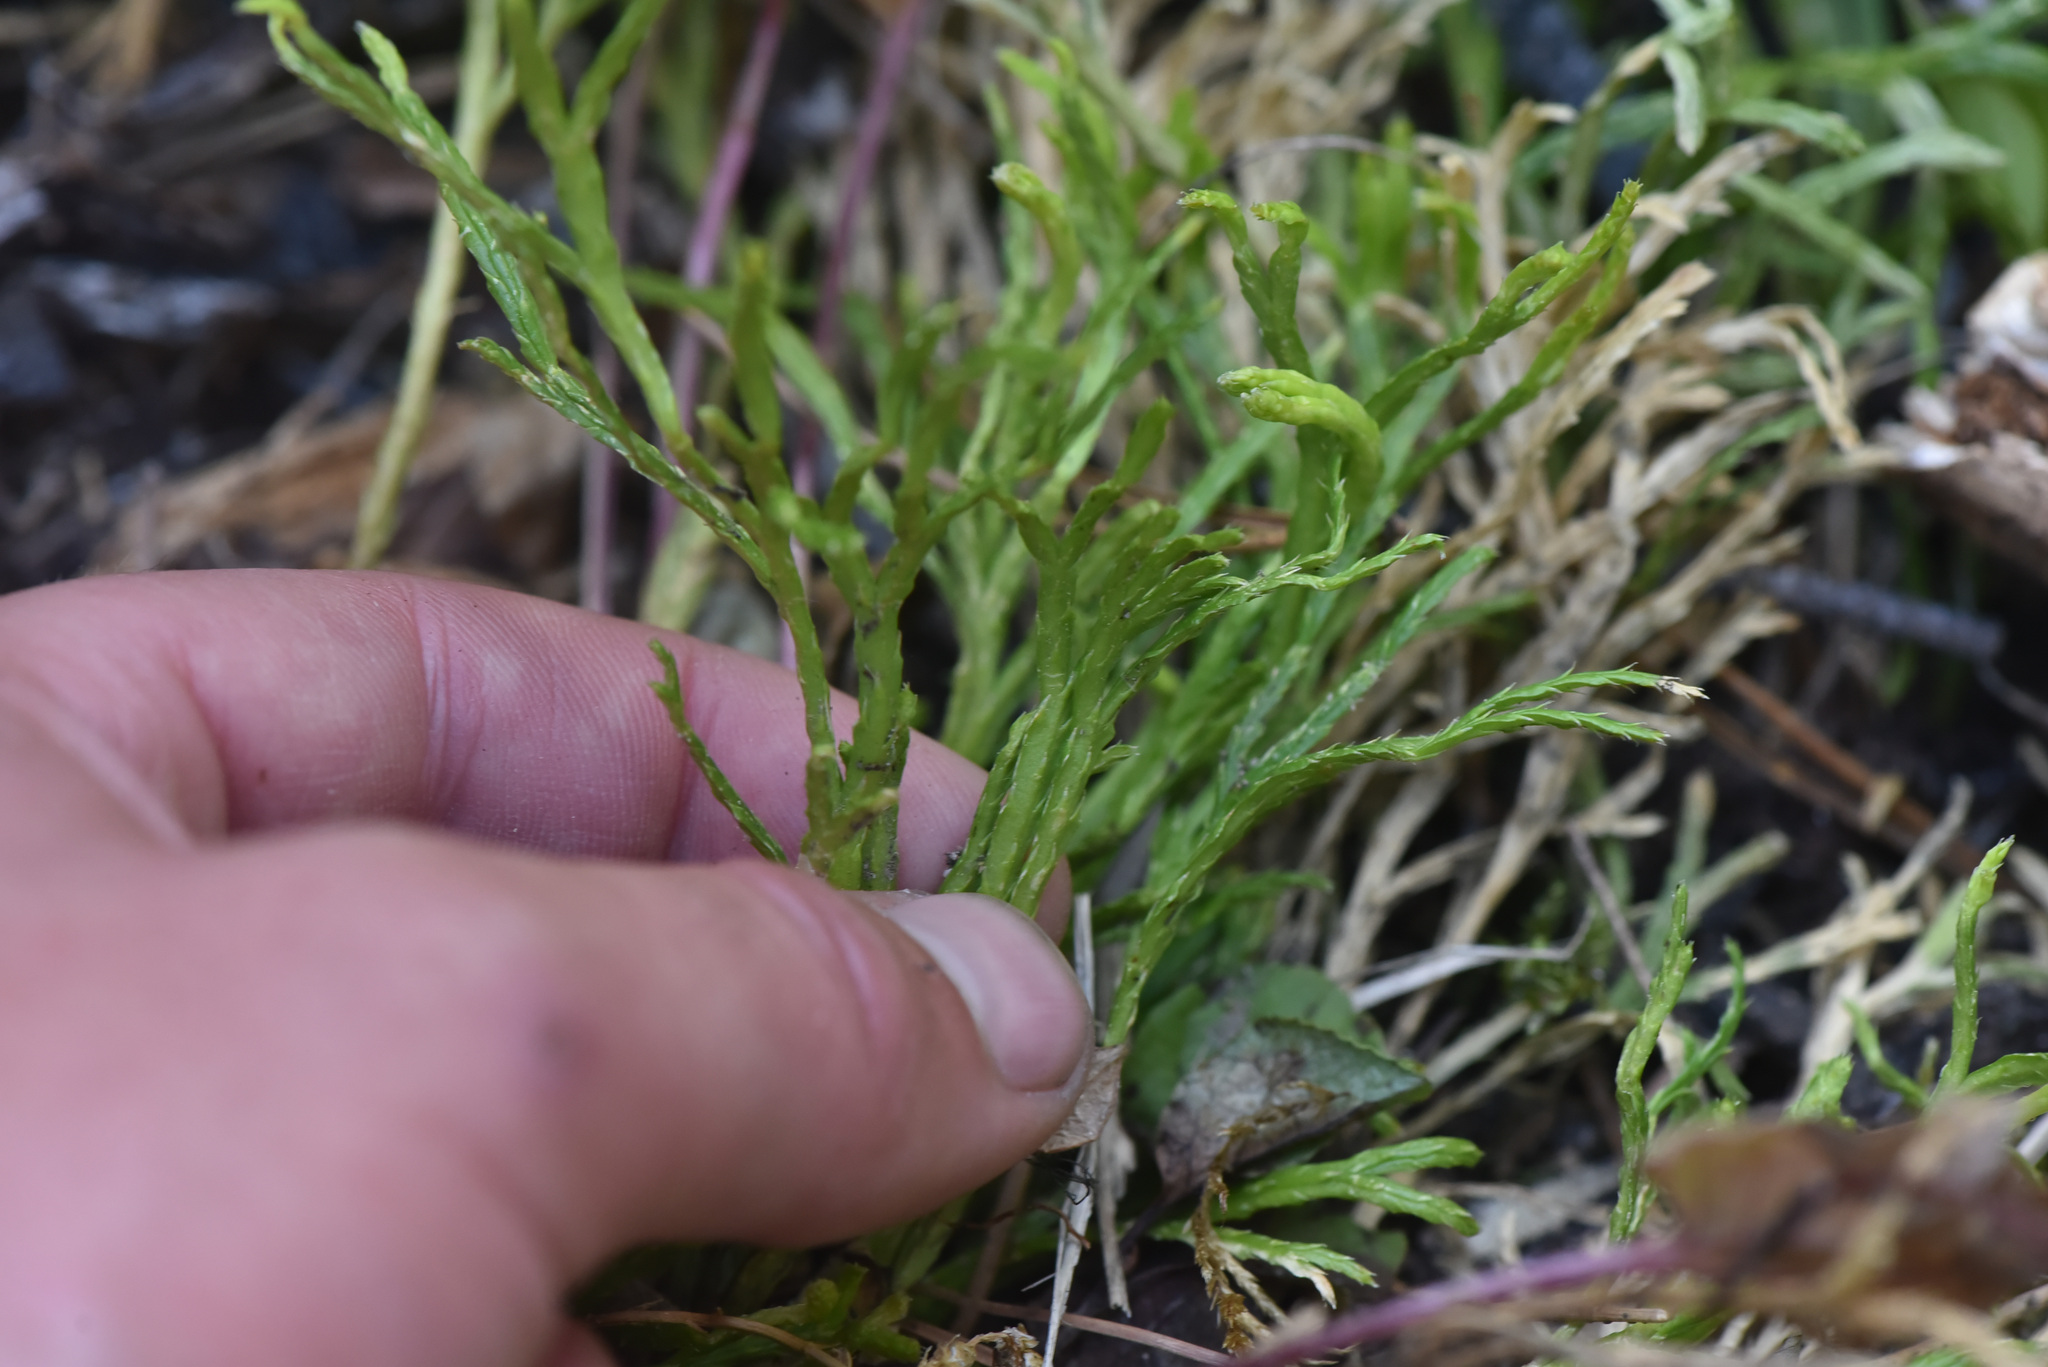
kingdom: Plantae
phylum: Tracheophyta
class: Lycopodiopsida
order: Lycopodiales
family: Lycopodiaceae
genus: Diphasiastrum
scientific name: Diphasiastrum complanatum
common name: Northern running-pine
